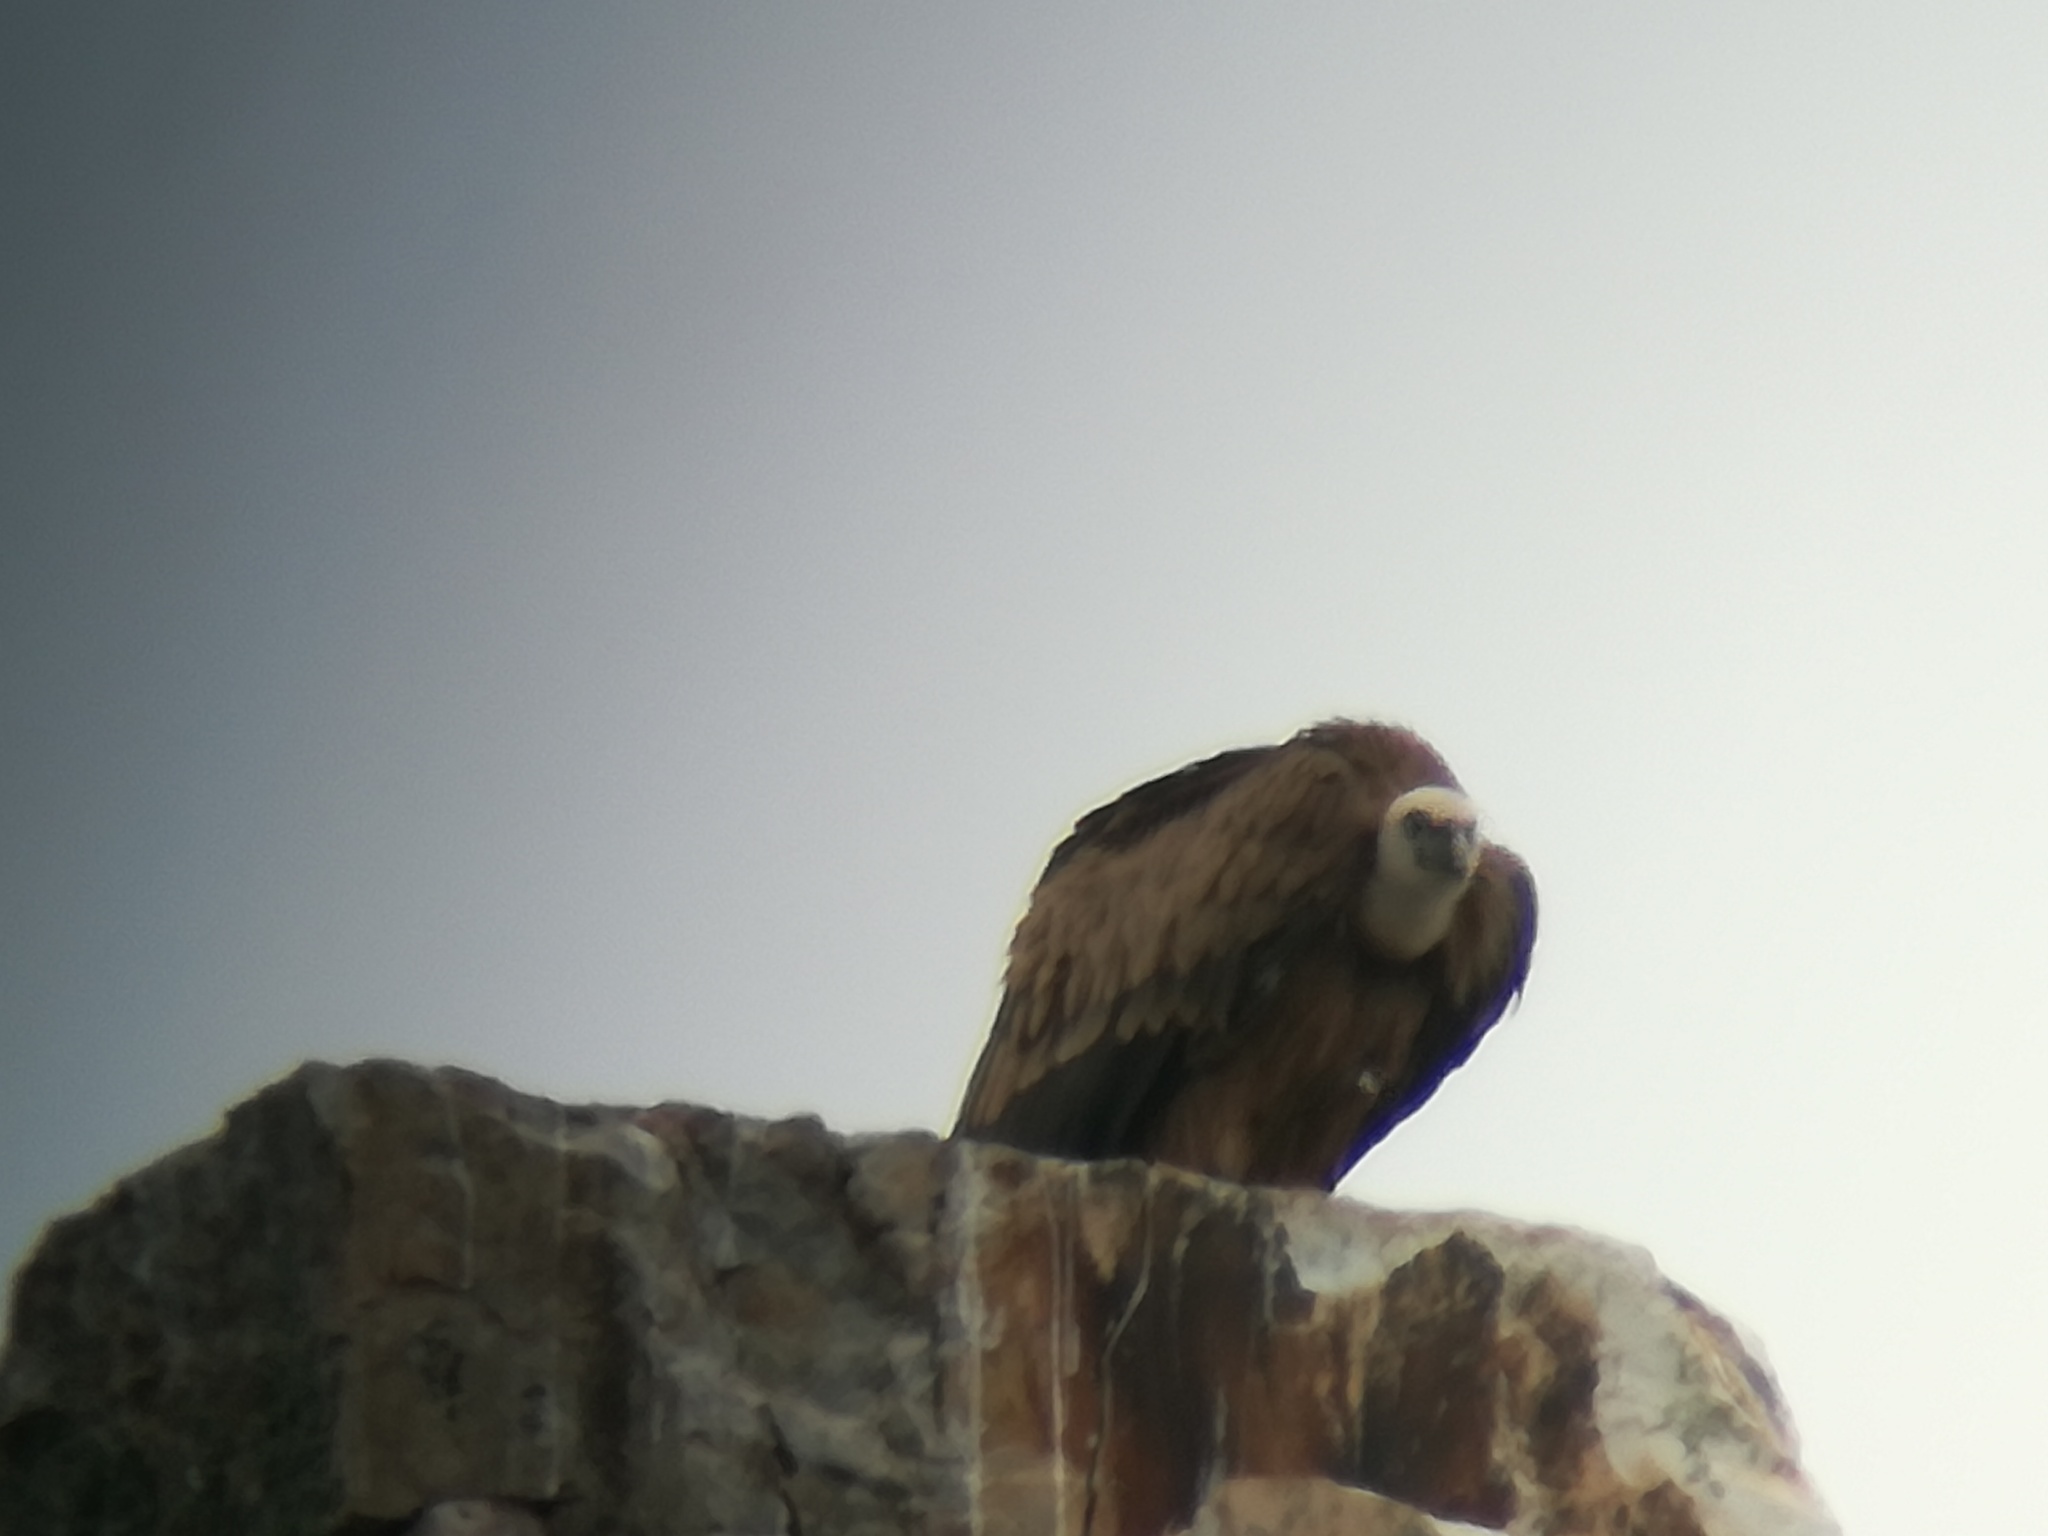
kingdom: Animalia
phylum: Chordata
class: Aves
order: Accipitriformes
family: Accipitridae
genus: Gyps
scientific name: Gyps fulvus
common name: Griffon vulture
